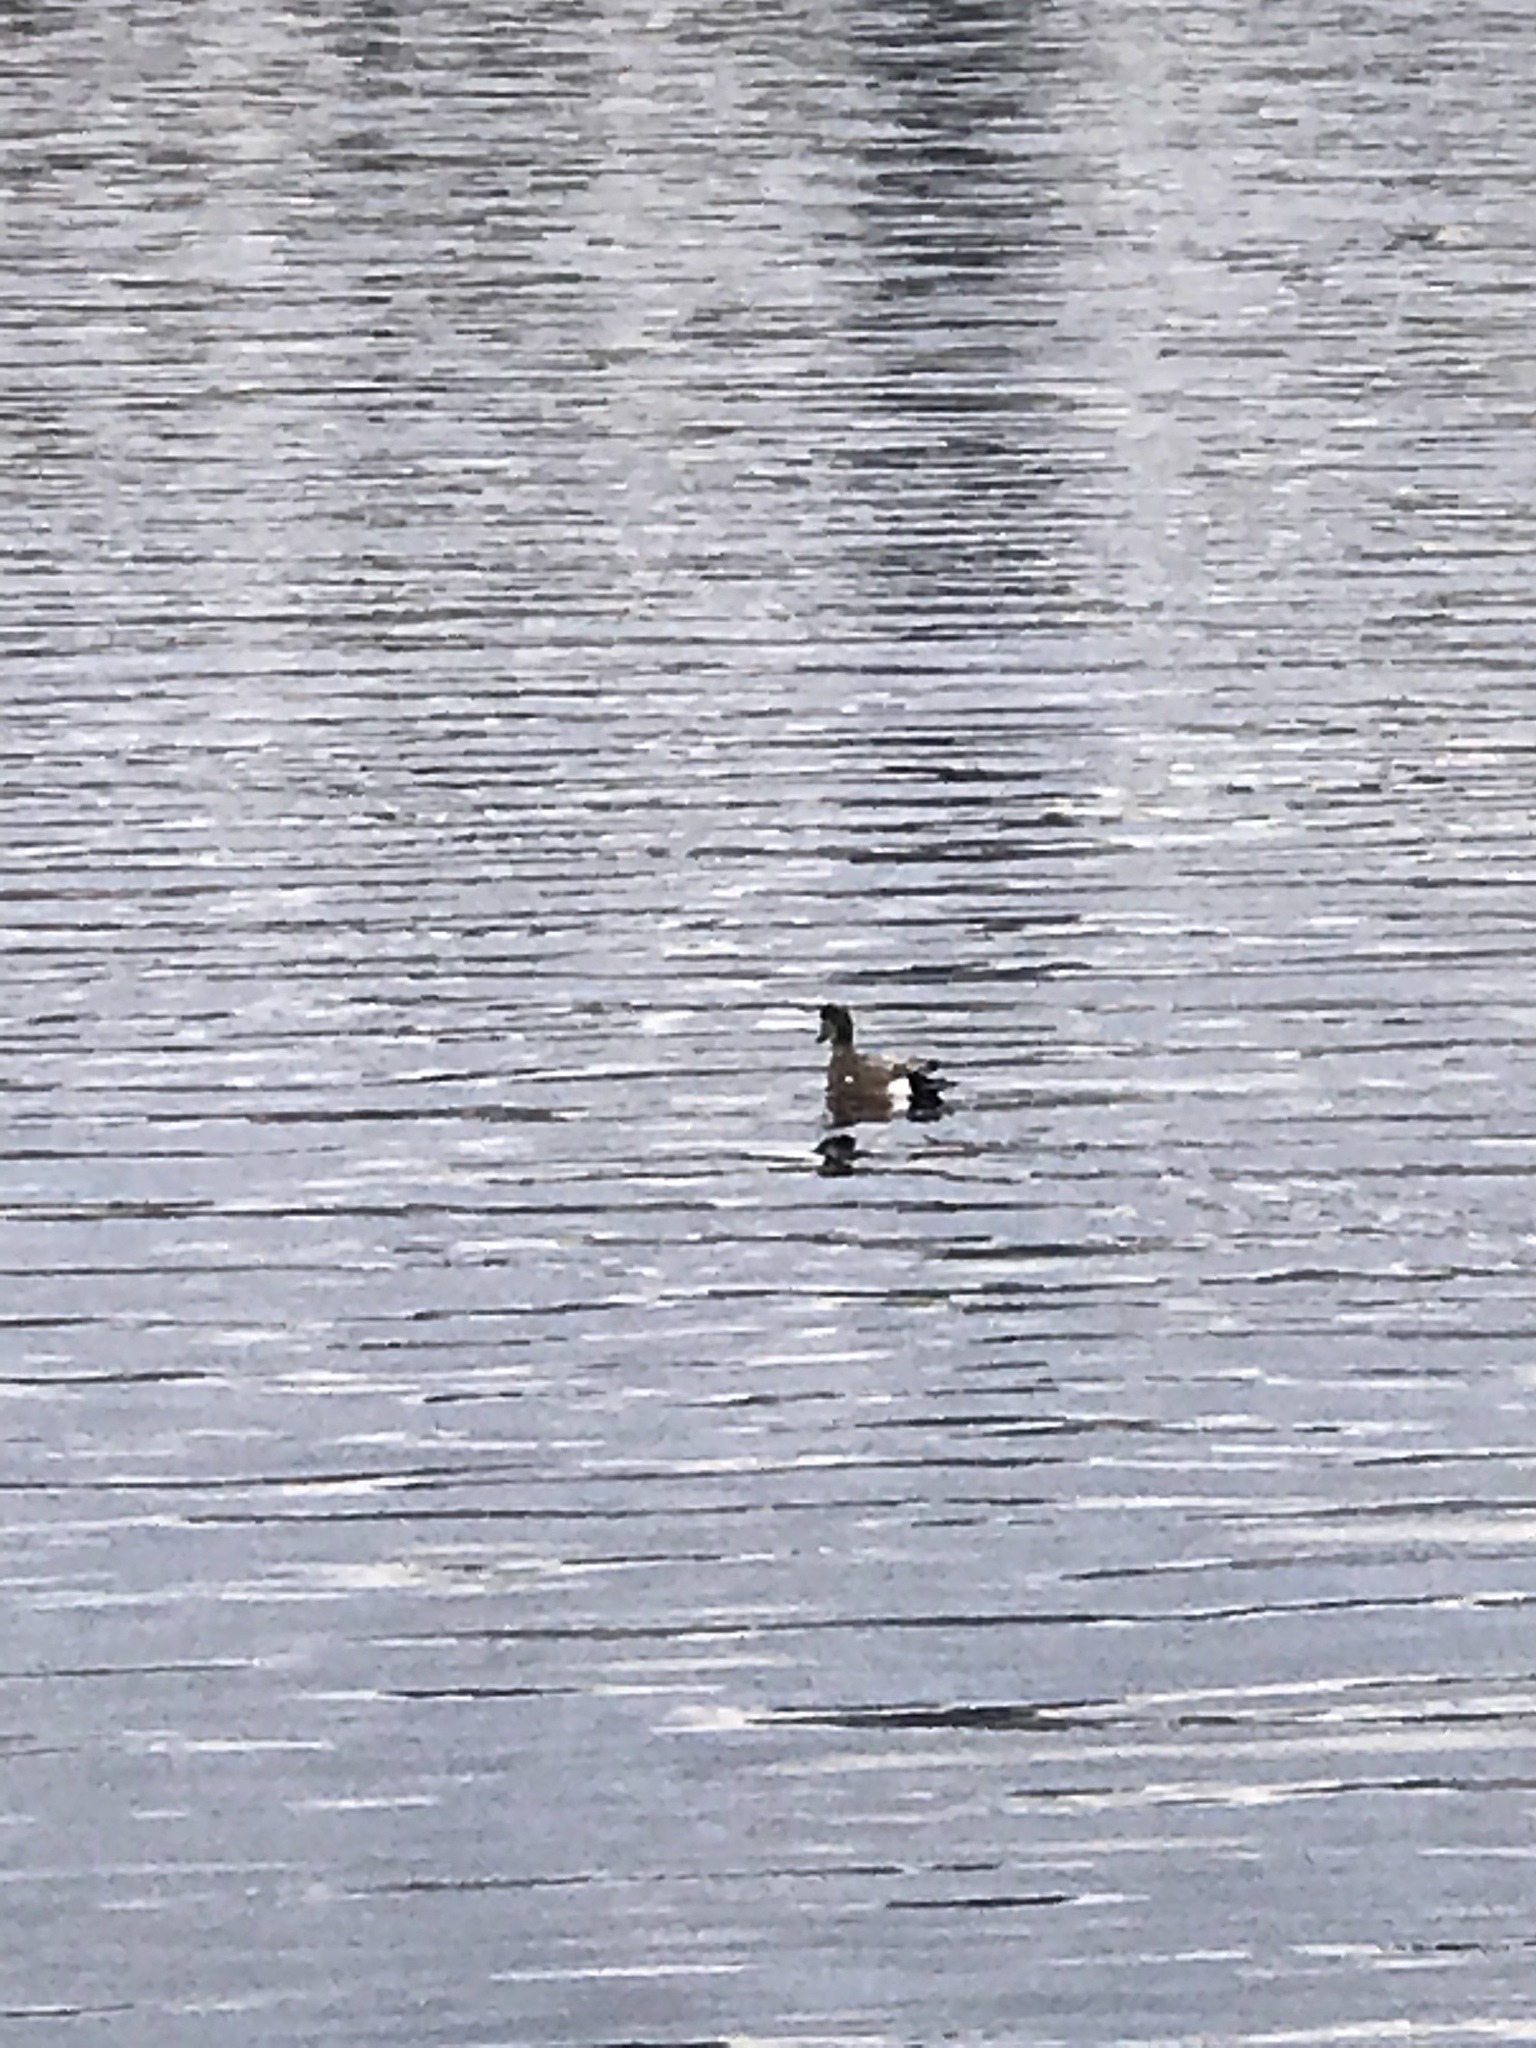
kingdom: Animalia
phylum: Chordata
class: Aves
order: Anseriformes
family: Anatidae
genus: Mareca
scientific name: Mareca americana
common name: American wigeon
